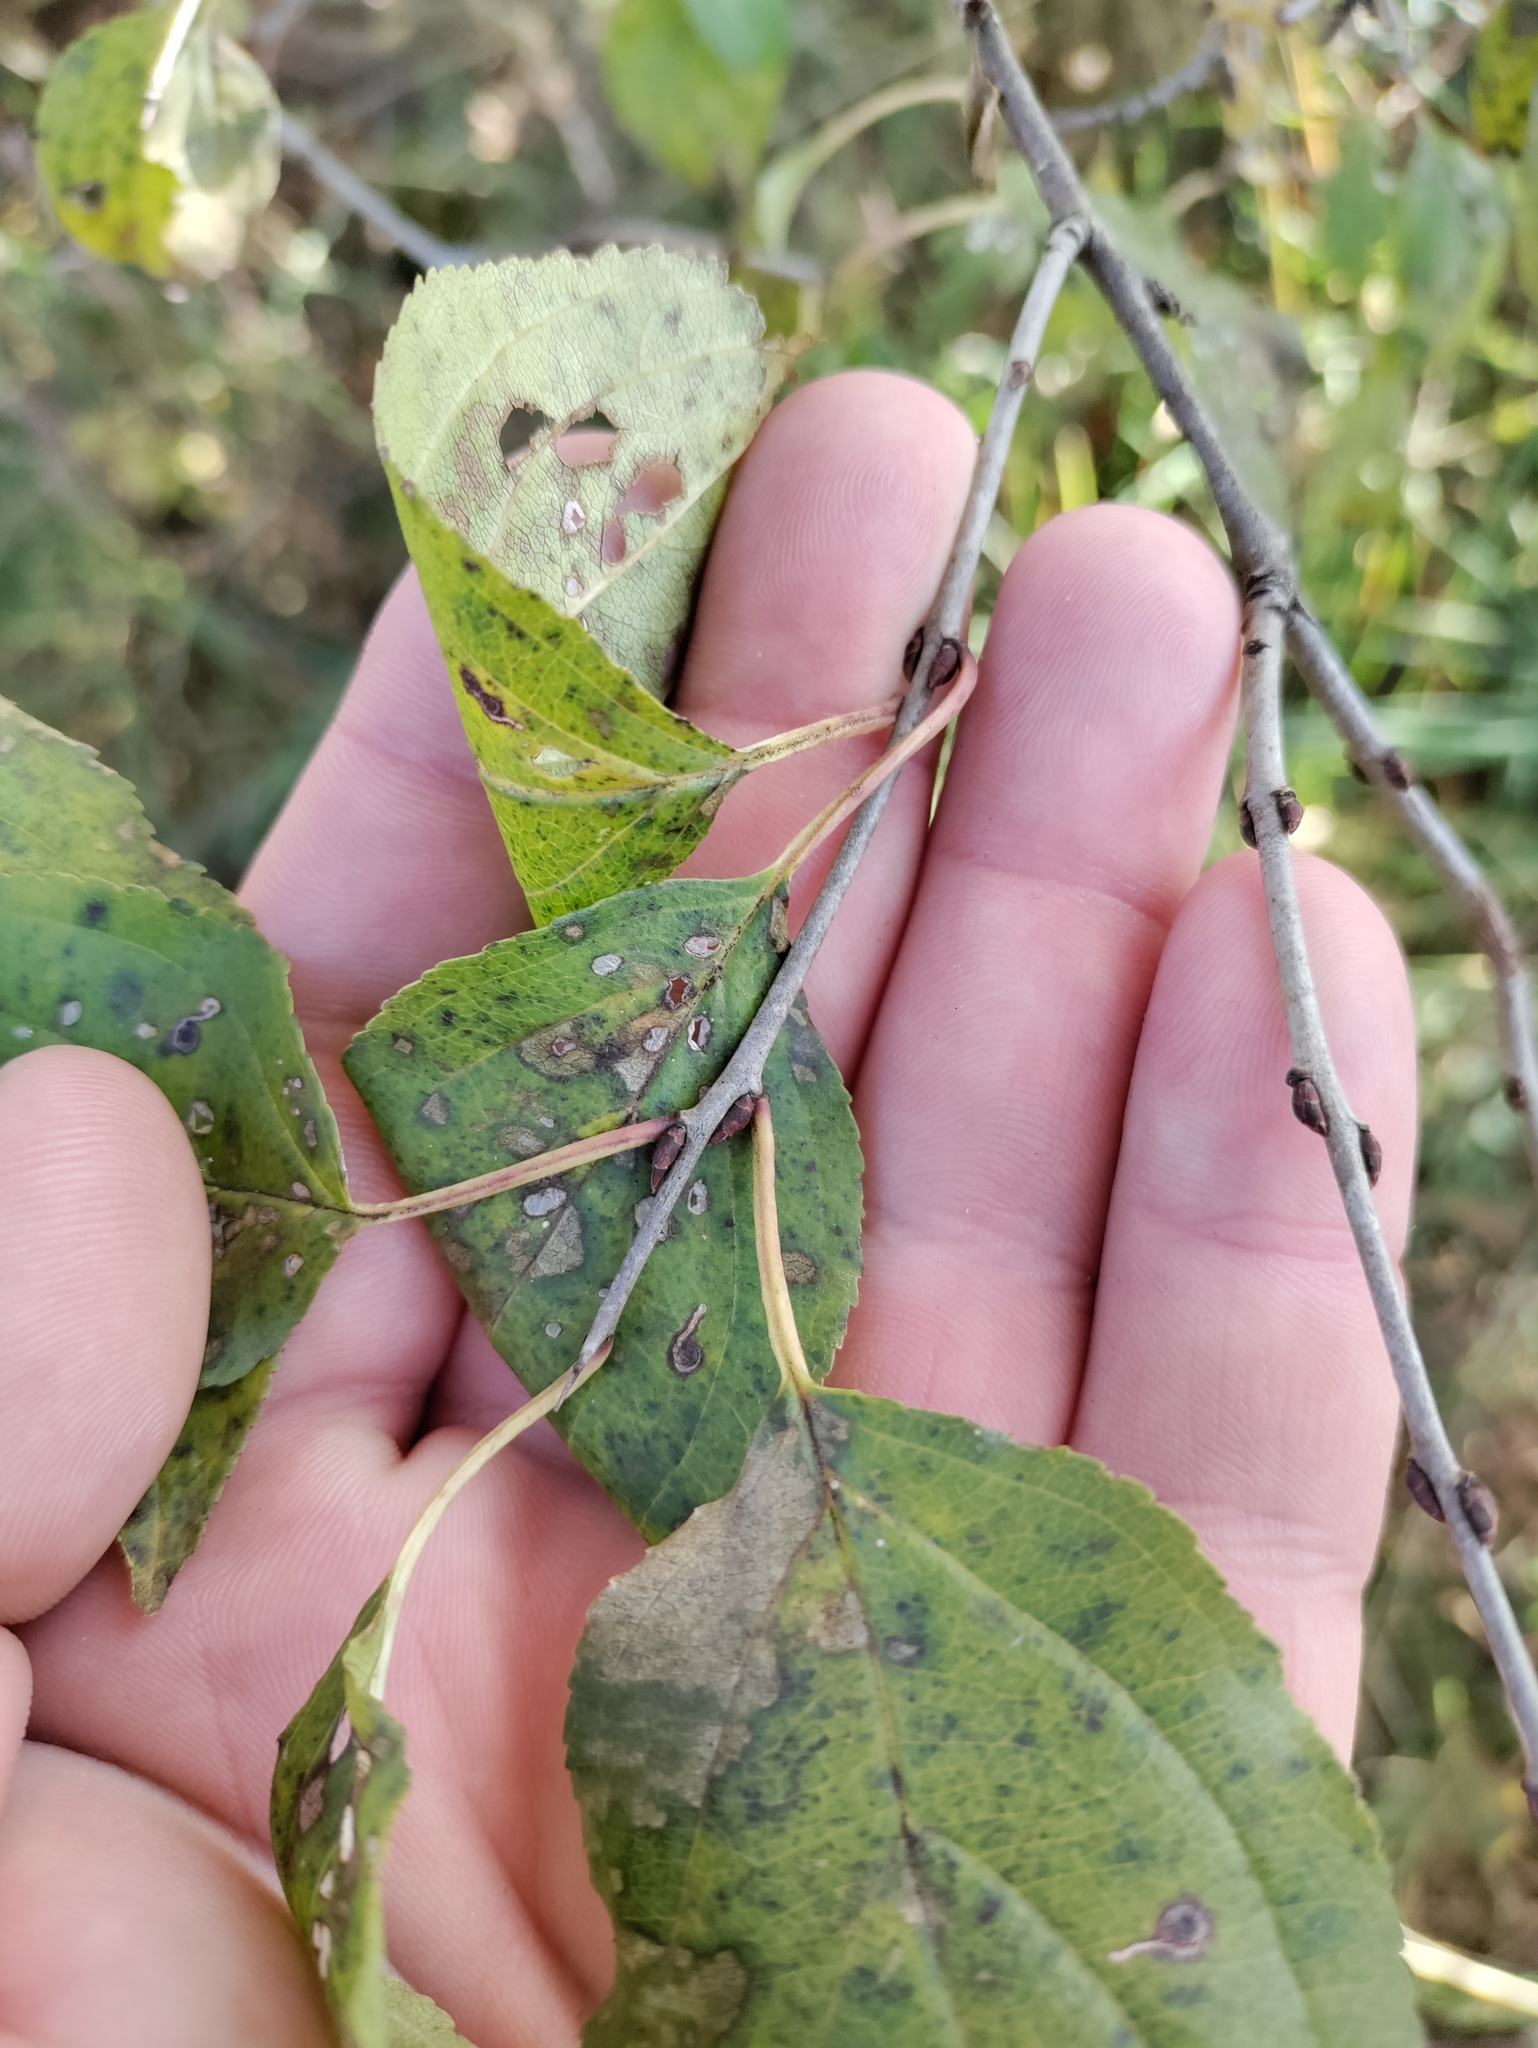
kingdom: Plantae
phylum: Tracheophyta
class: Magnoliopsida
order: Rosales
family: Rhamnaceae
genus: Rhamnus
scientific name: Rhamnus cathartica
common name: Common buckthorn
